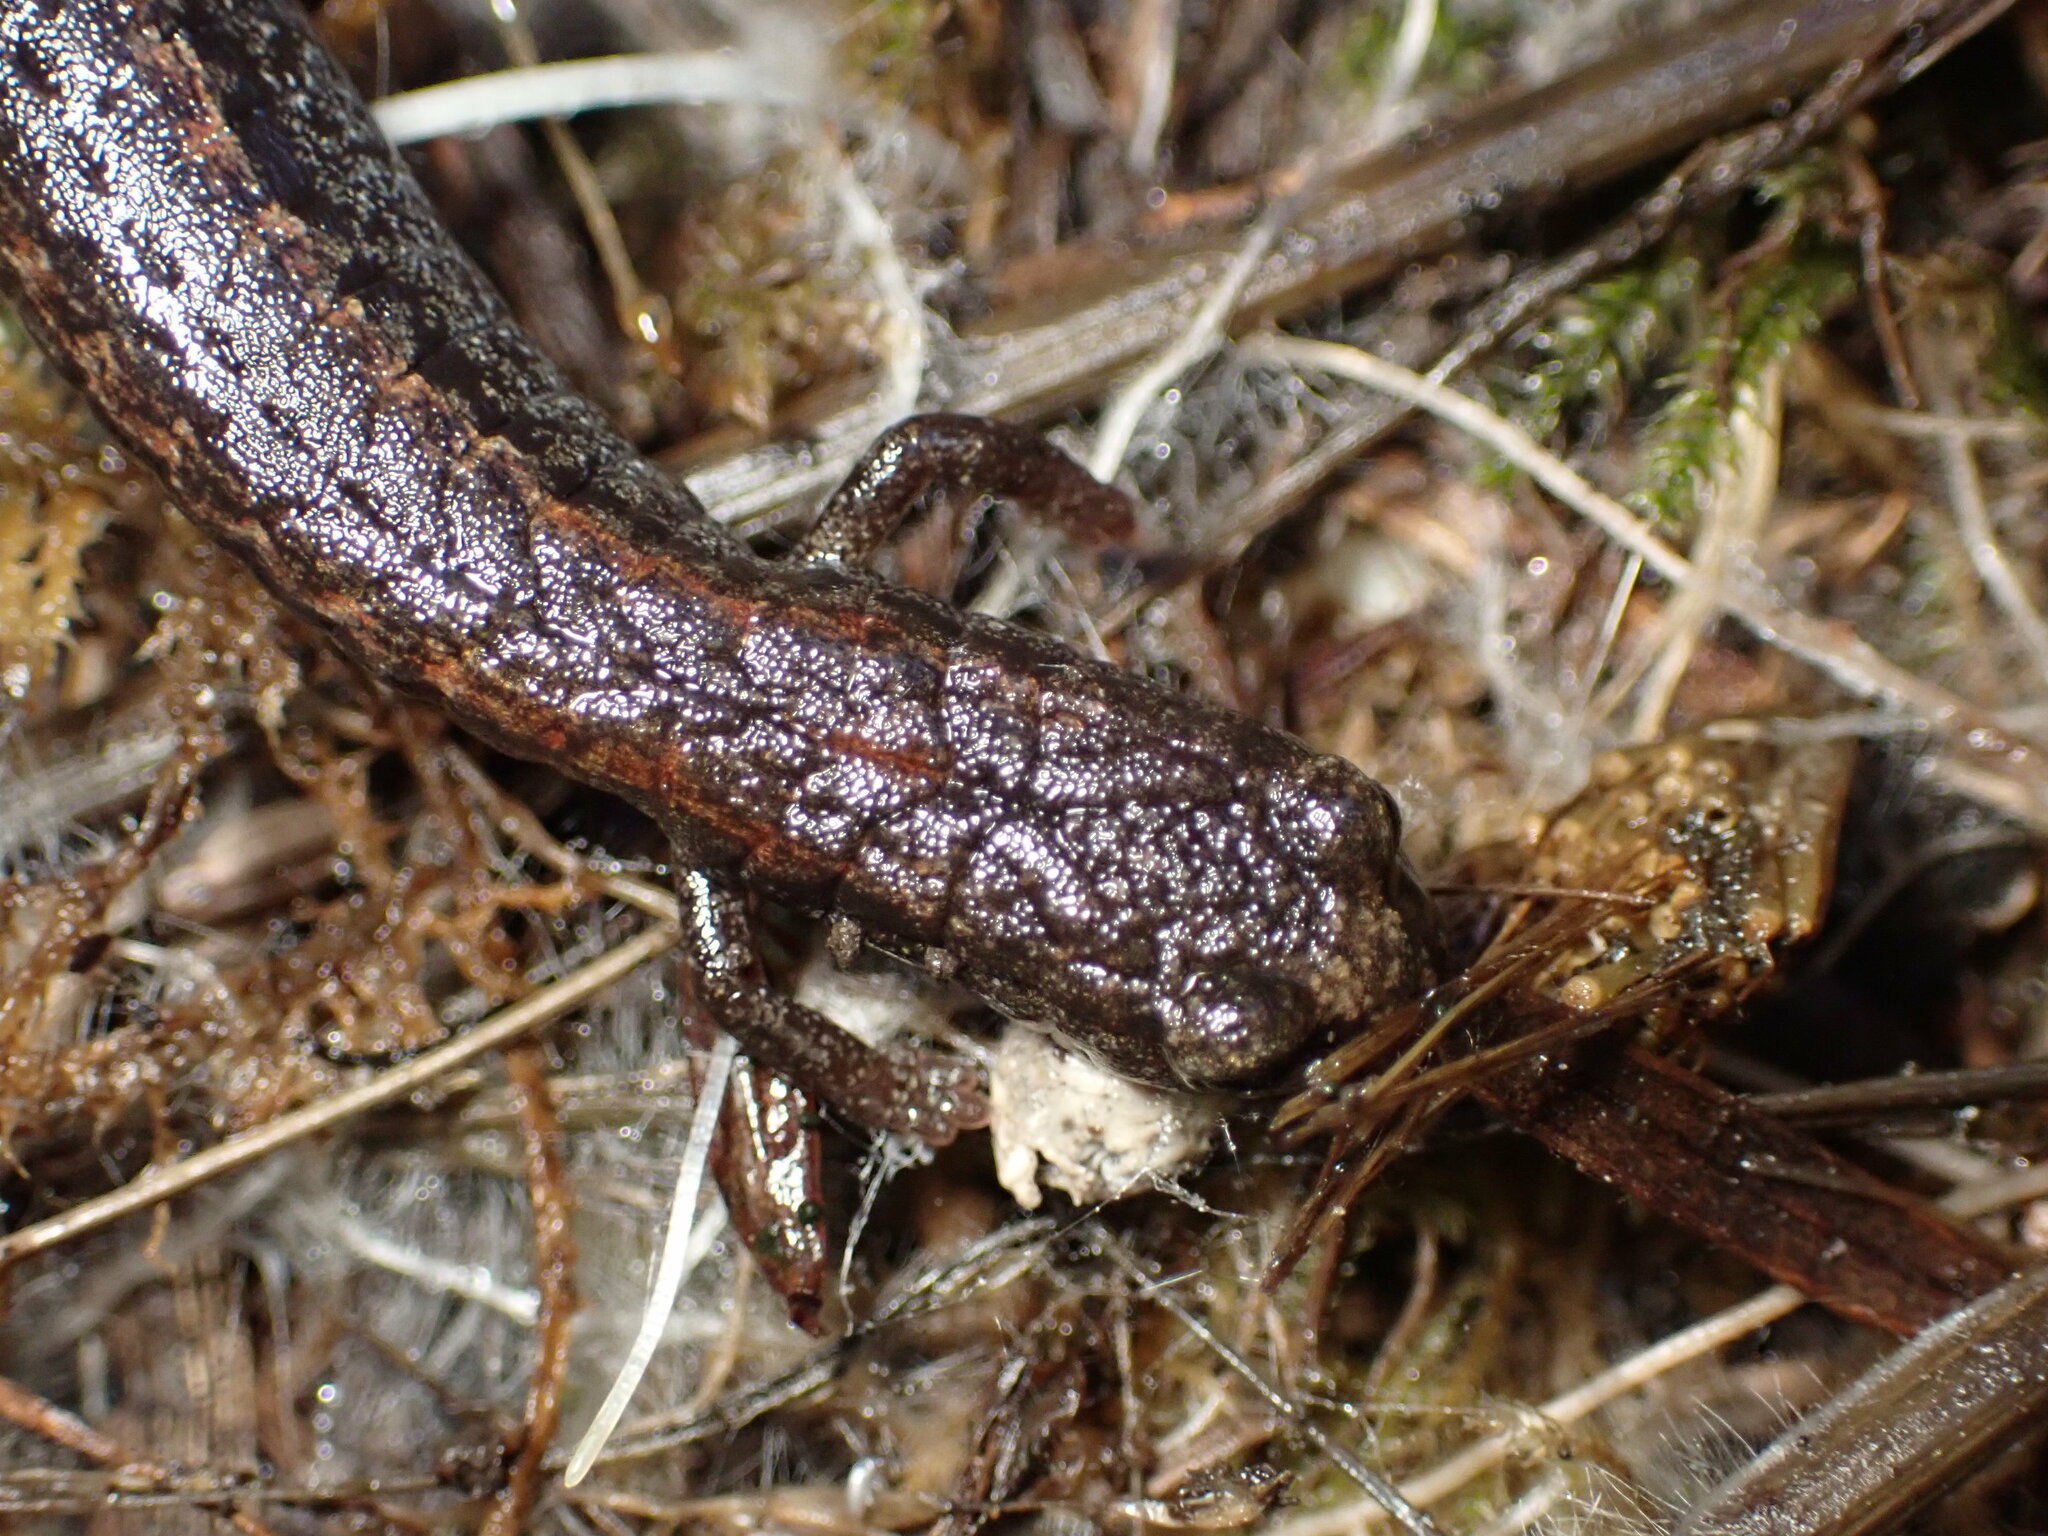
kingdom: Animalia
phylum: Chordata
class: Amphibia
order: Caudata
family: Plethodontidae
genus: Batrachoseps
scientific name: Batrachoseps attenuatus
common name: California slender salamander
